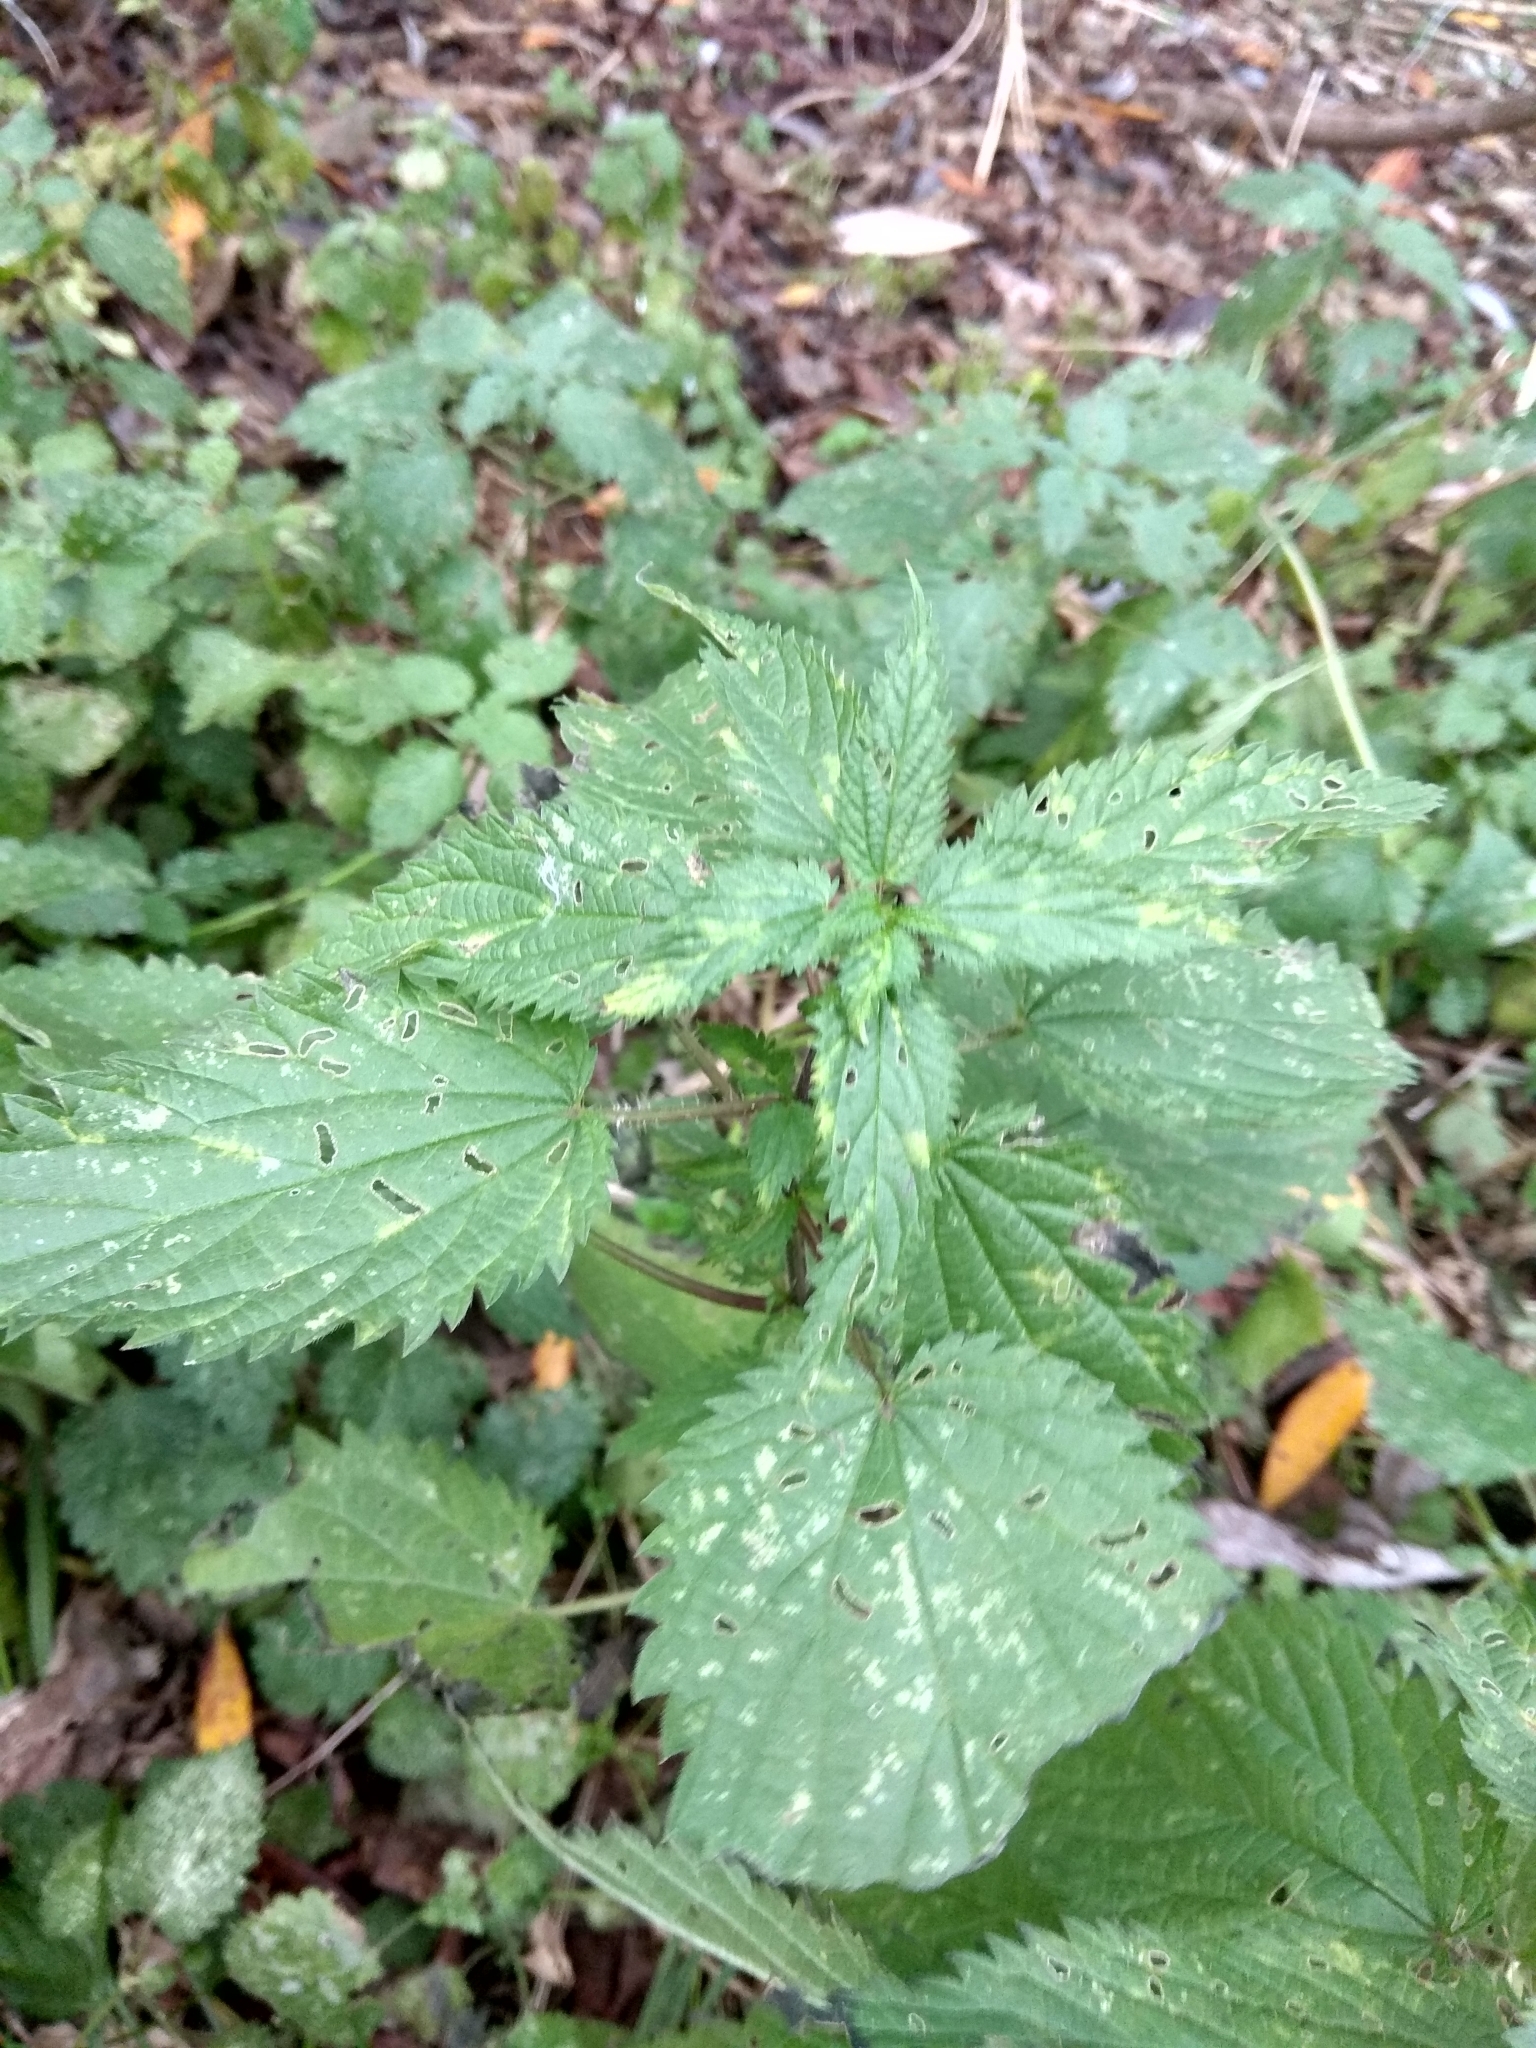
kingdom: Plantae
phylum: Tracheophyta
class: Magnoliopsida
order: Rosales
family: Urticaceae
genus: Urtica
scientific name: Urtica dioica
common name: Common nettle
